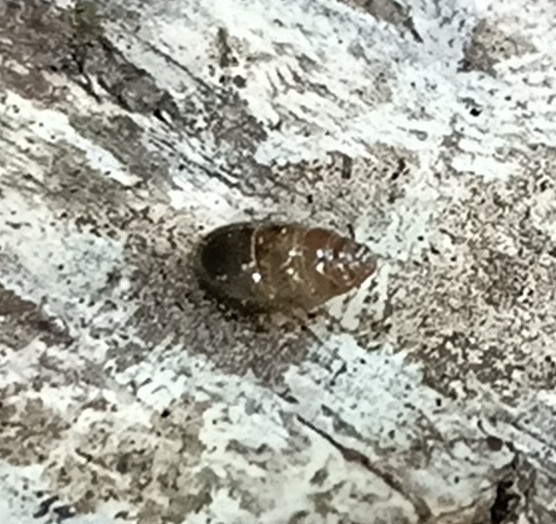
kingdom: Animalia
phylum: Mollusca
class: Gastropoda
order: Stylommatophora
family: Cochlicopidae
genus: Cochlicopa
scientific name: Cochlicopa lubrica
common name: Glossy pillar snail
